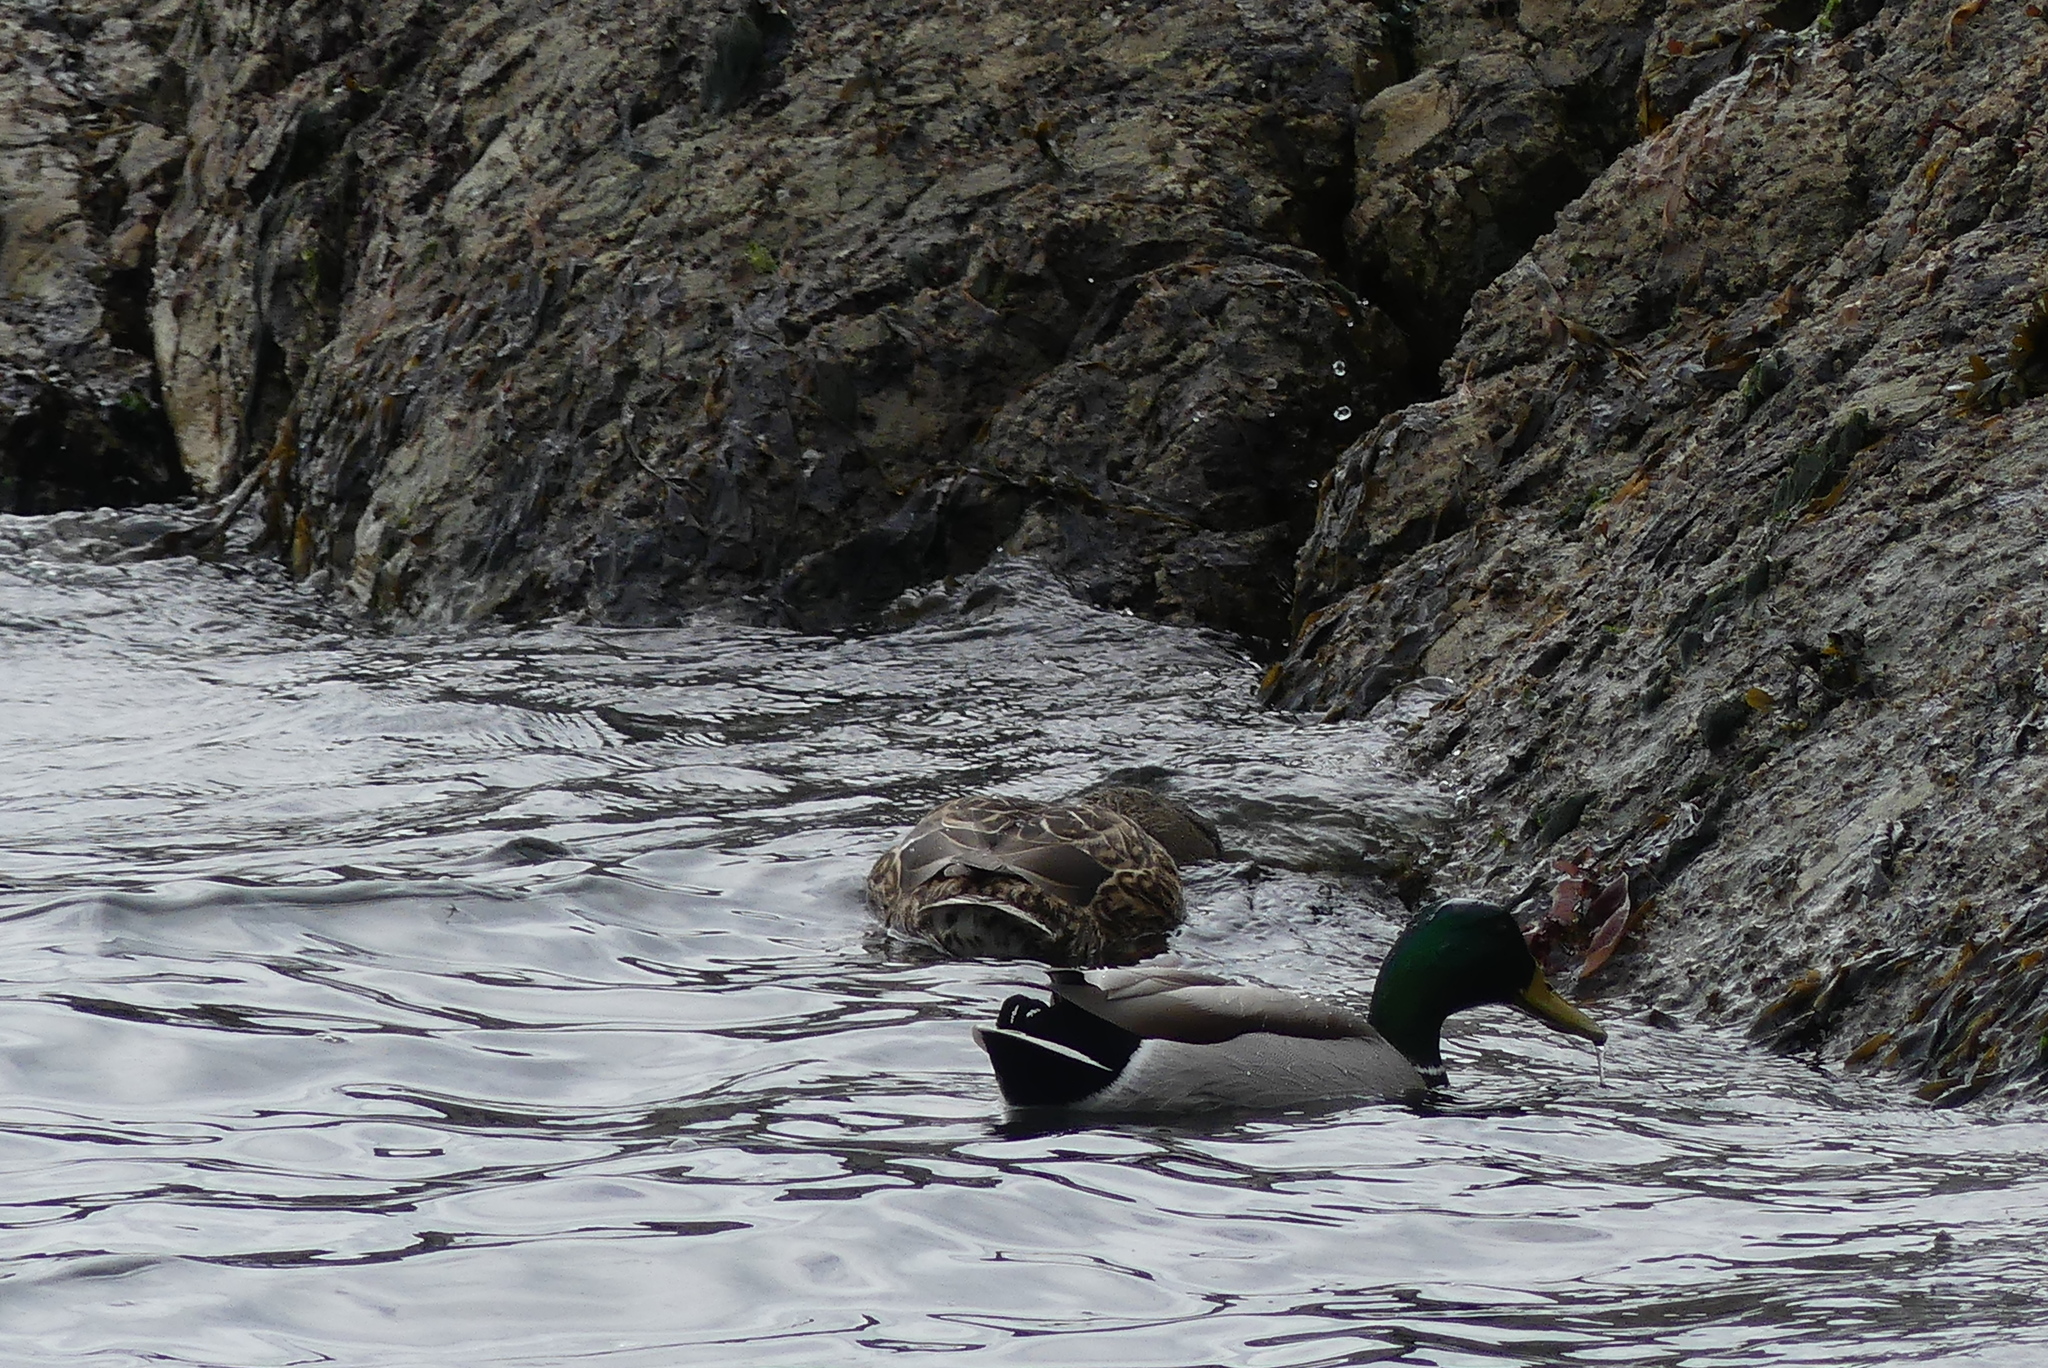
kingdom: Animalia
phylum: Chordata
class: Aves
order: Anseriformes
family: Anatidae
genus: Anas
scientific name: Anas platyrhynchos
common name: Mallard
